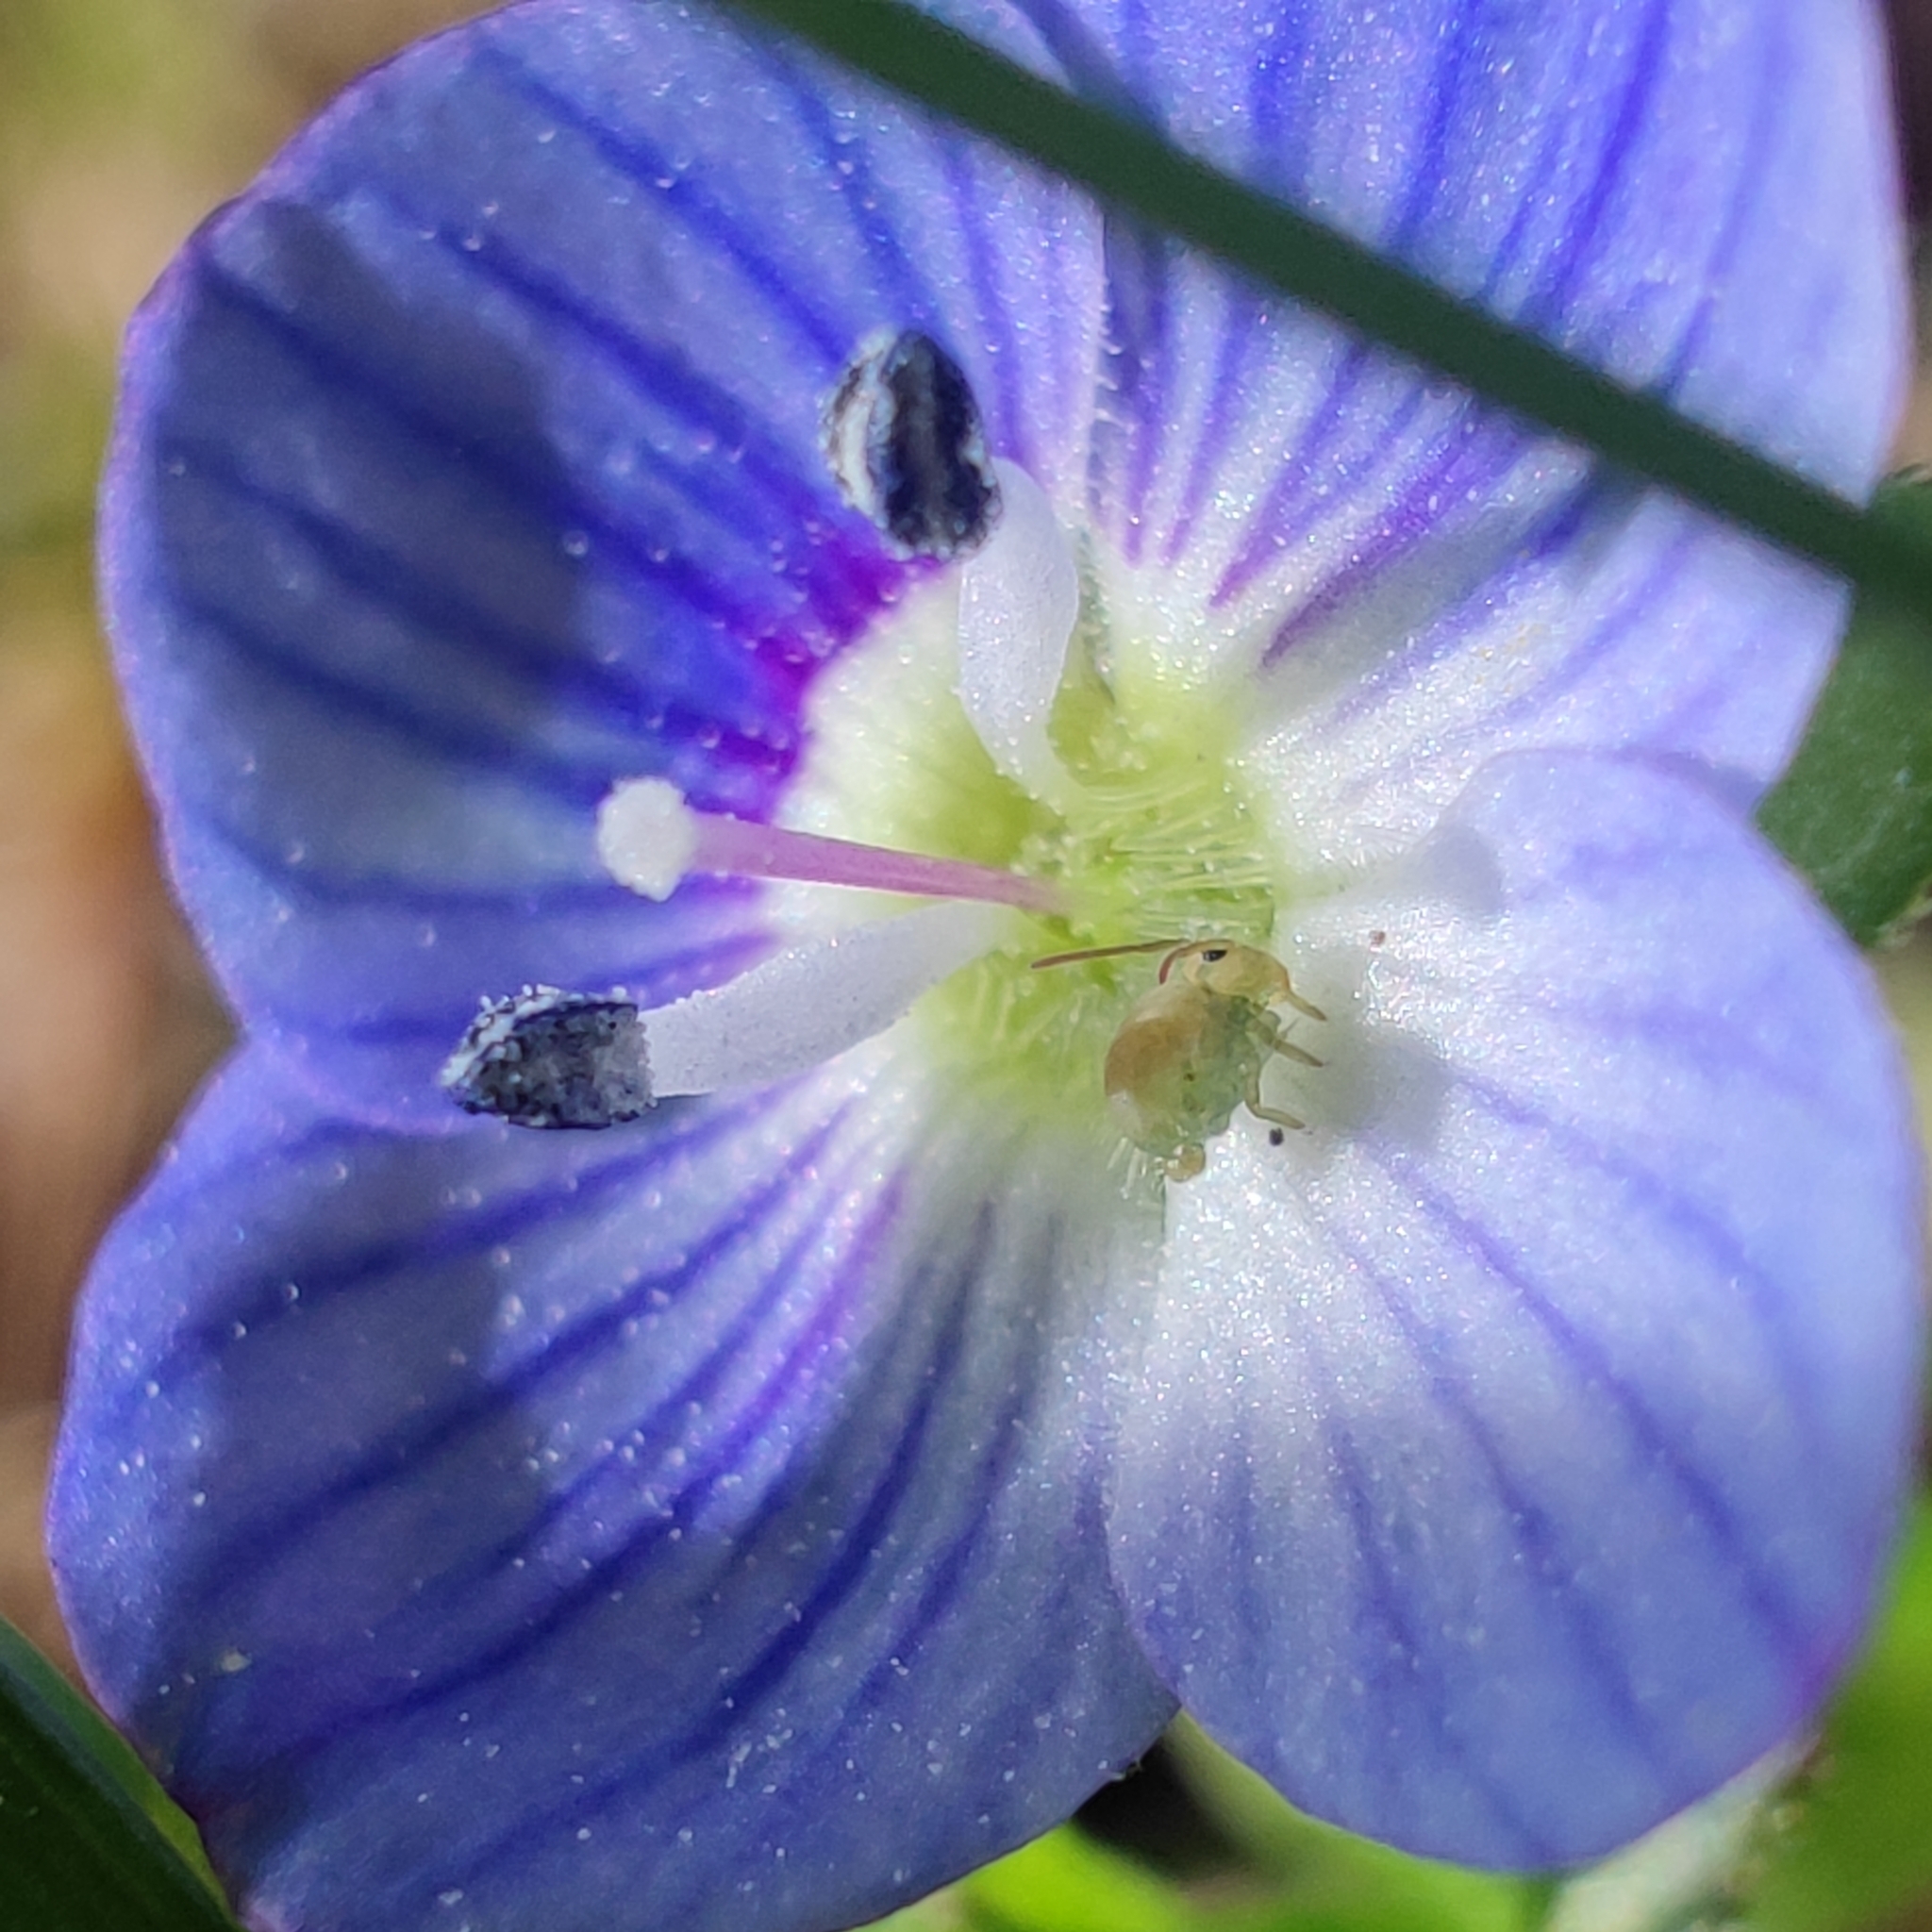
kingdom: Plantae
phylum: Tracheophyta
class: Magnoliopsida
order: Lamiales
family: Plantaginaceae
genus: Veronica
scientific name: Veronica persica
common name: Common field-speedwell
